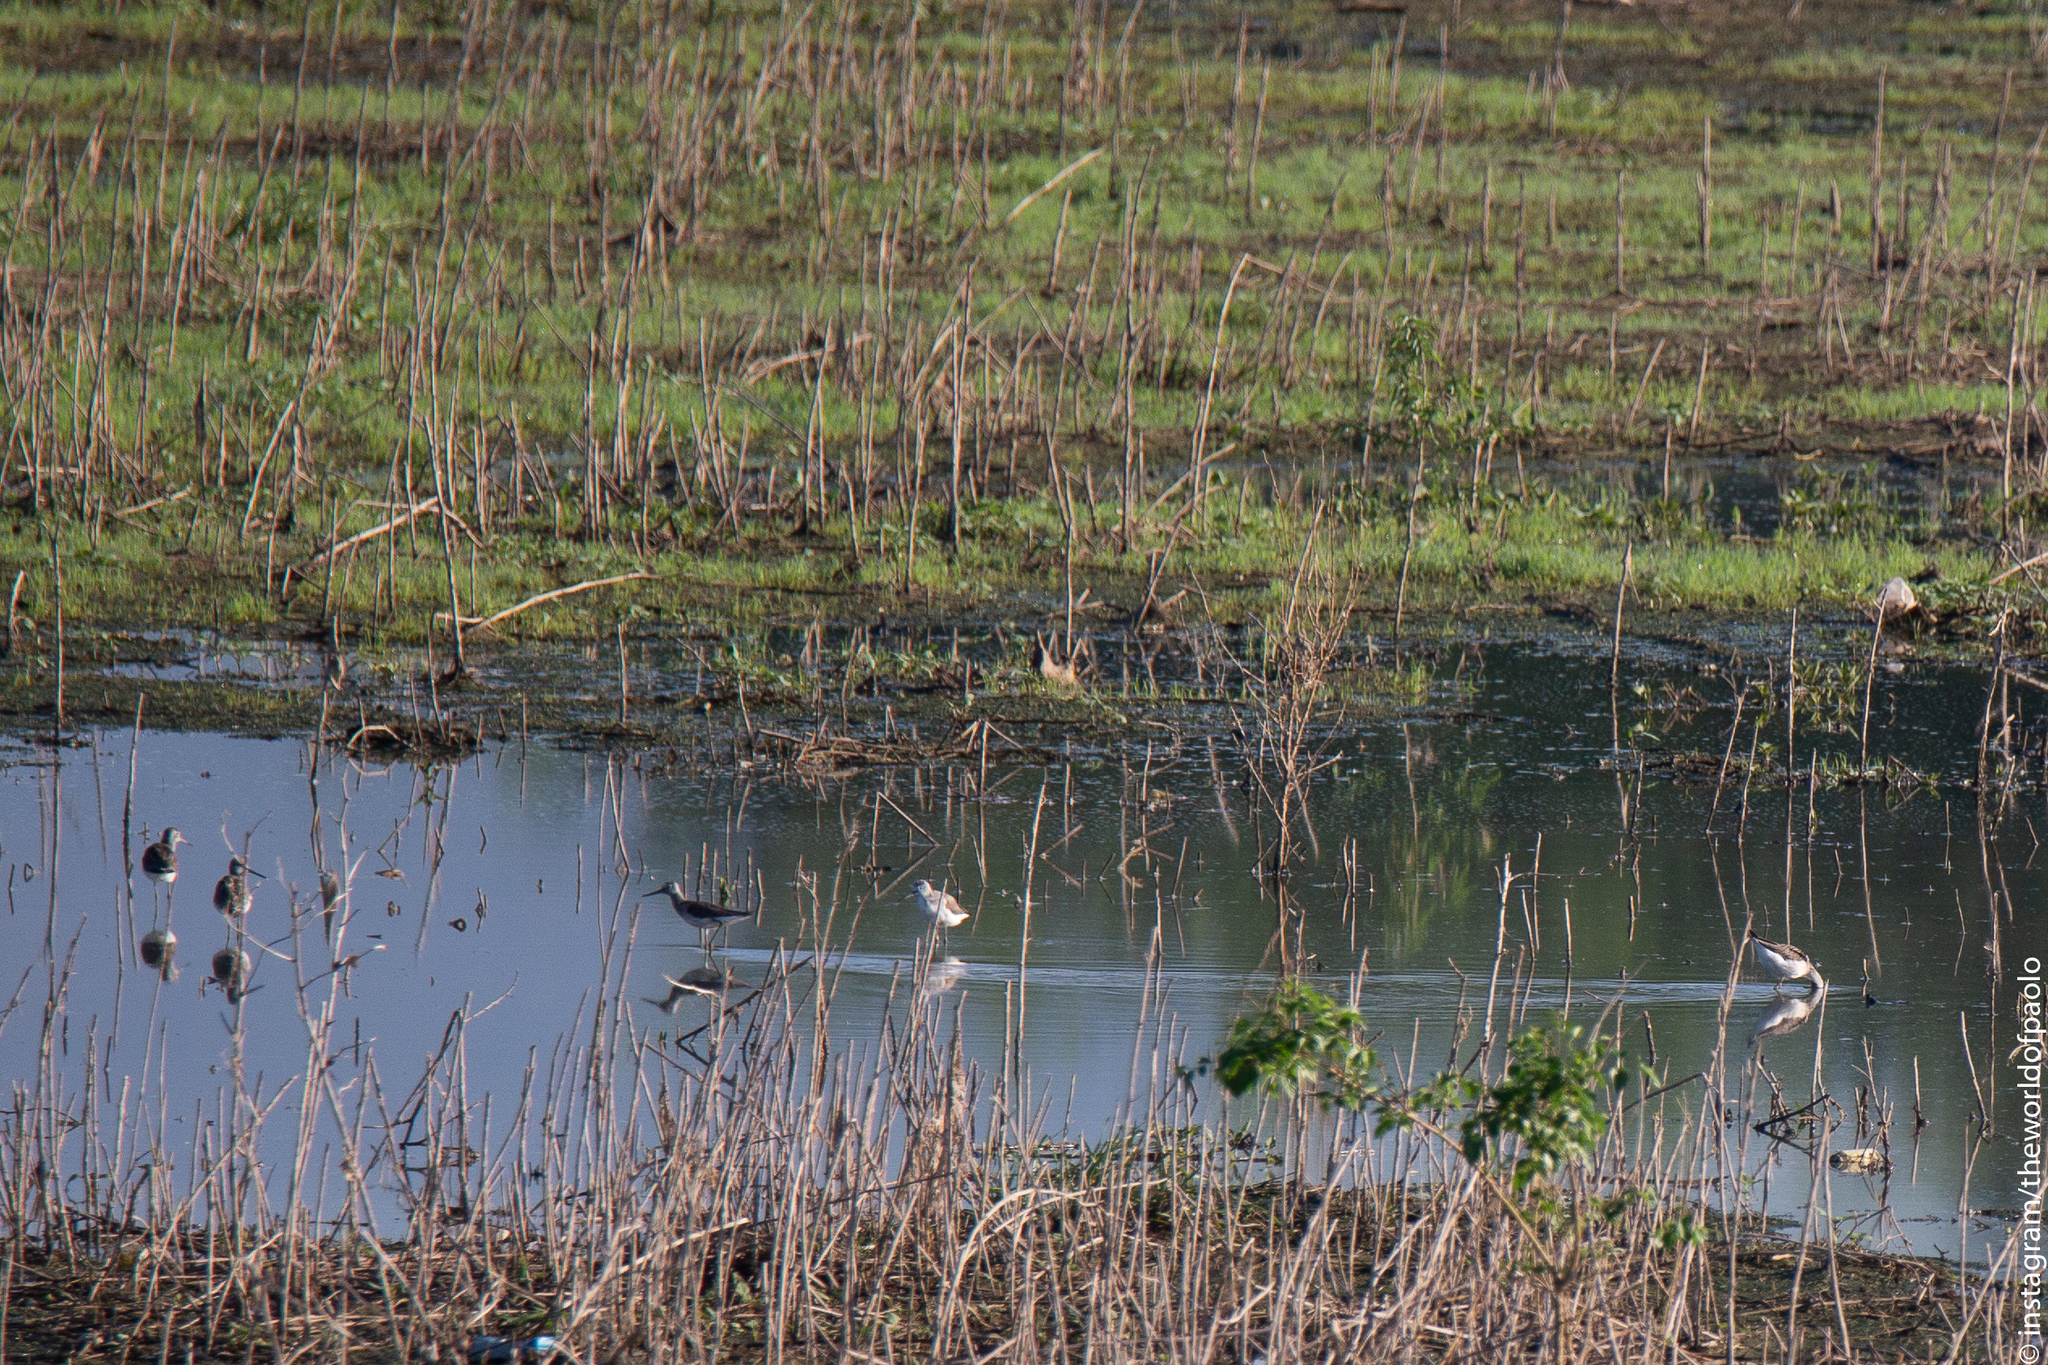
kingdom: Animalia
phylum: Chordata
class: Aves
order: Charadriiformes
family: Scolopacidae
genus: Tringa
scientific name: Tringa nebularia
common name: Common greenshank
